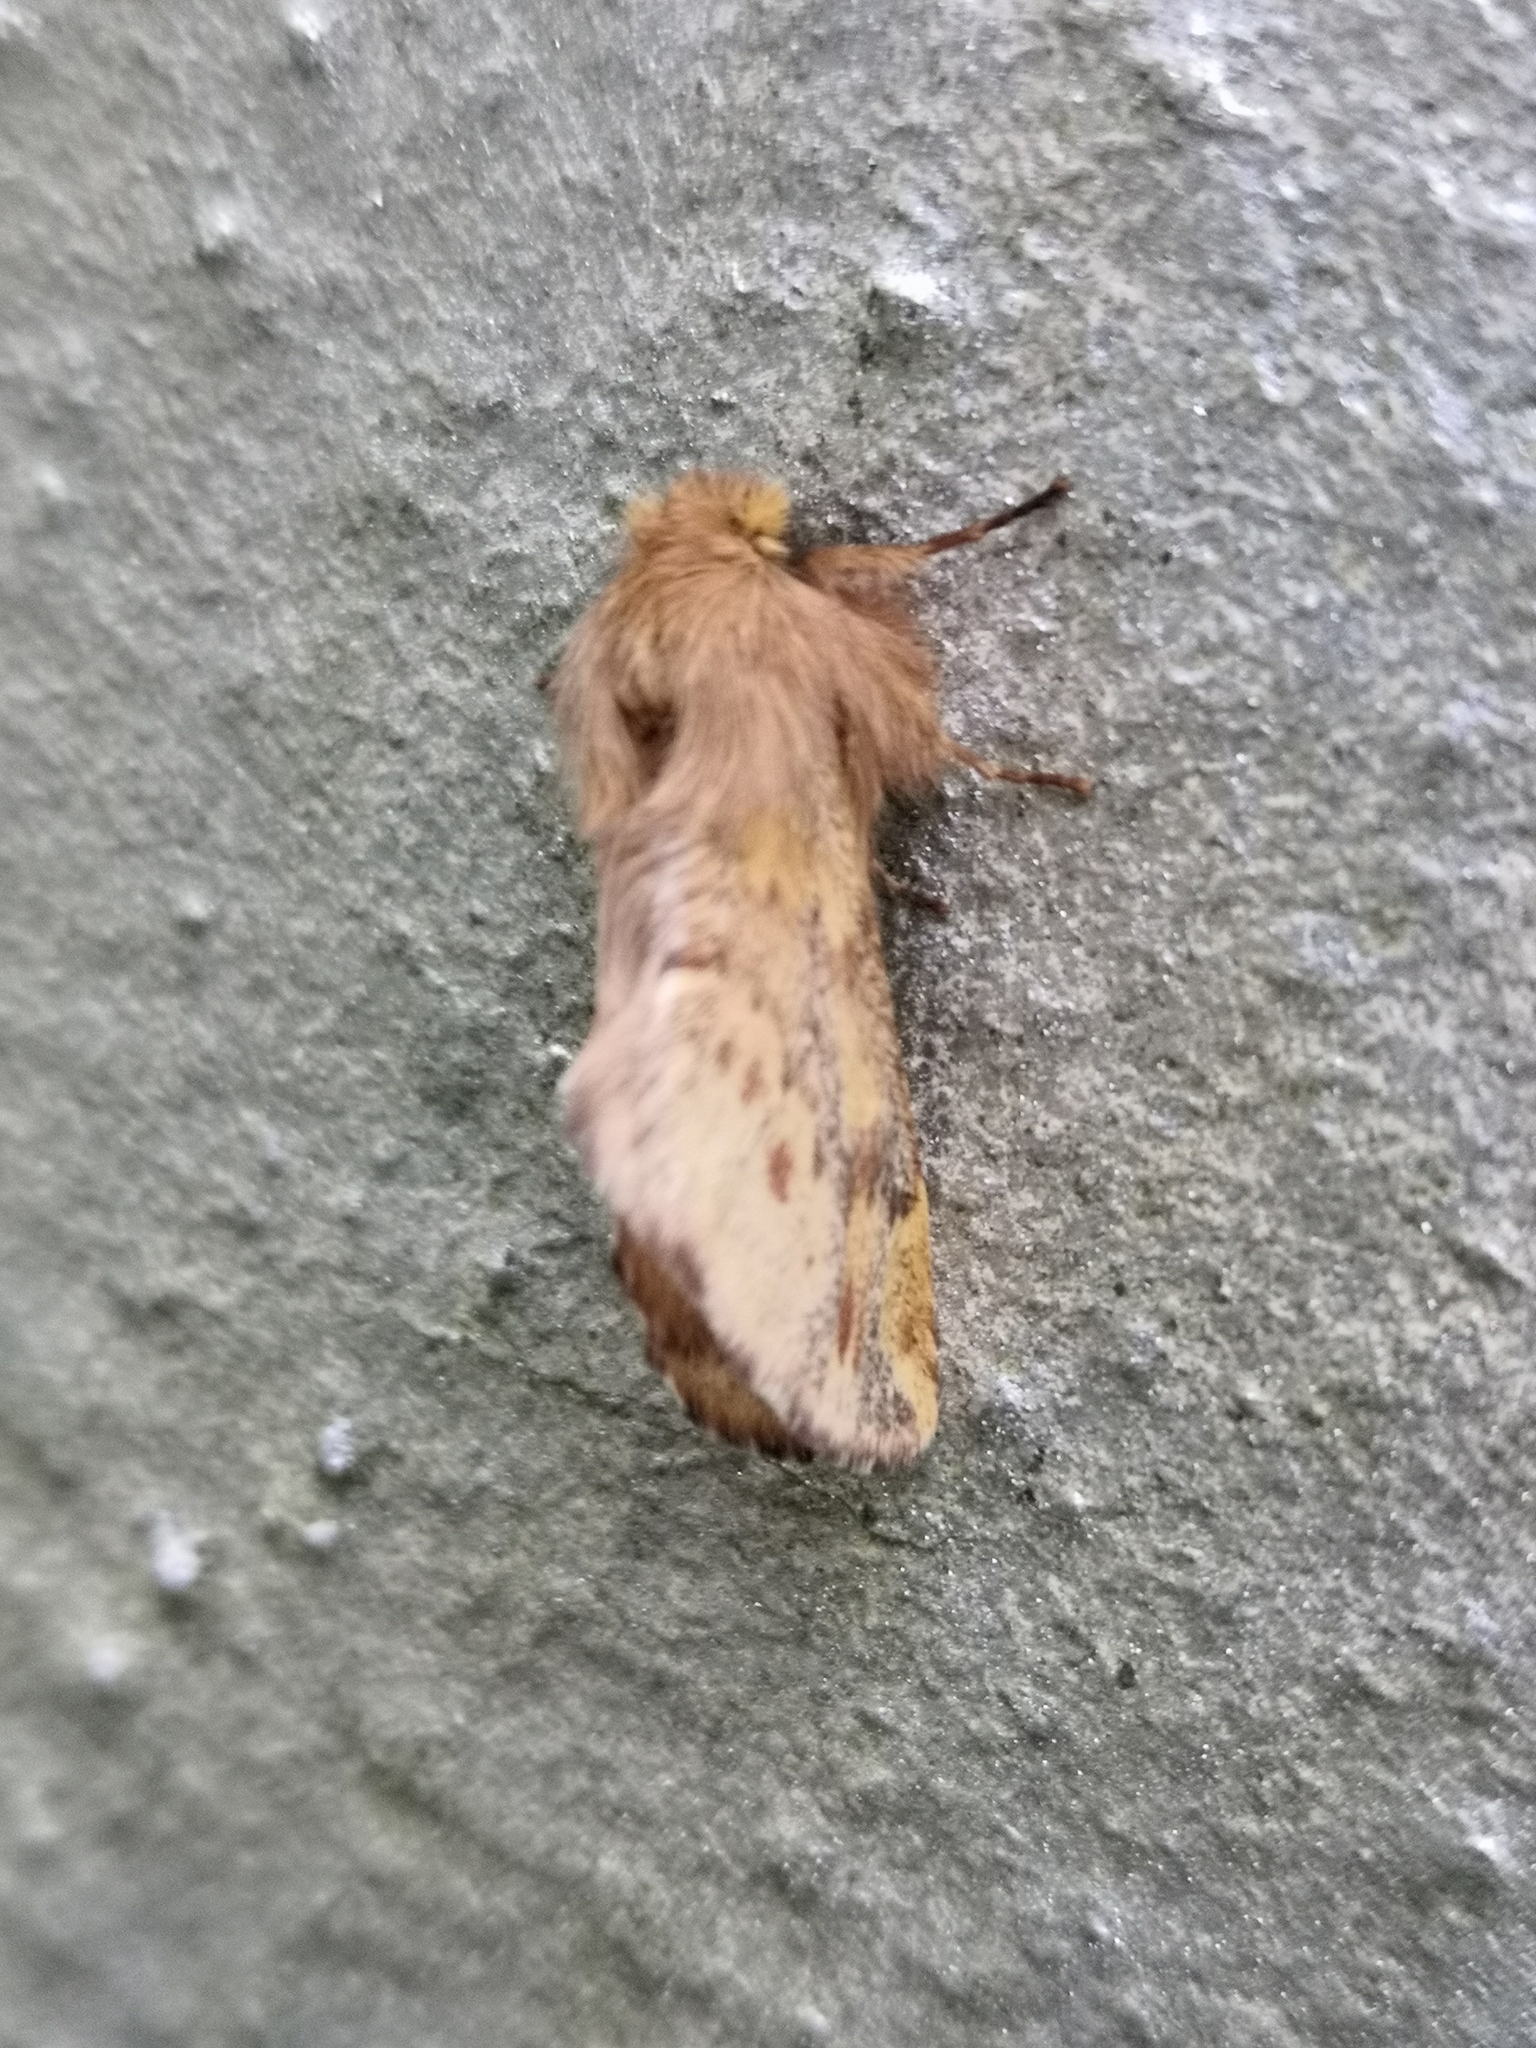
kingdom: Animalia
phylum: Arthropoda
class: Insecta
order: Lepidoptera
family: Notodontidae
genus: Ptilophora
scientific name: Ptilophora plumigera
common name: Plumed prominent
